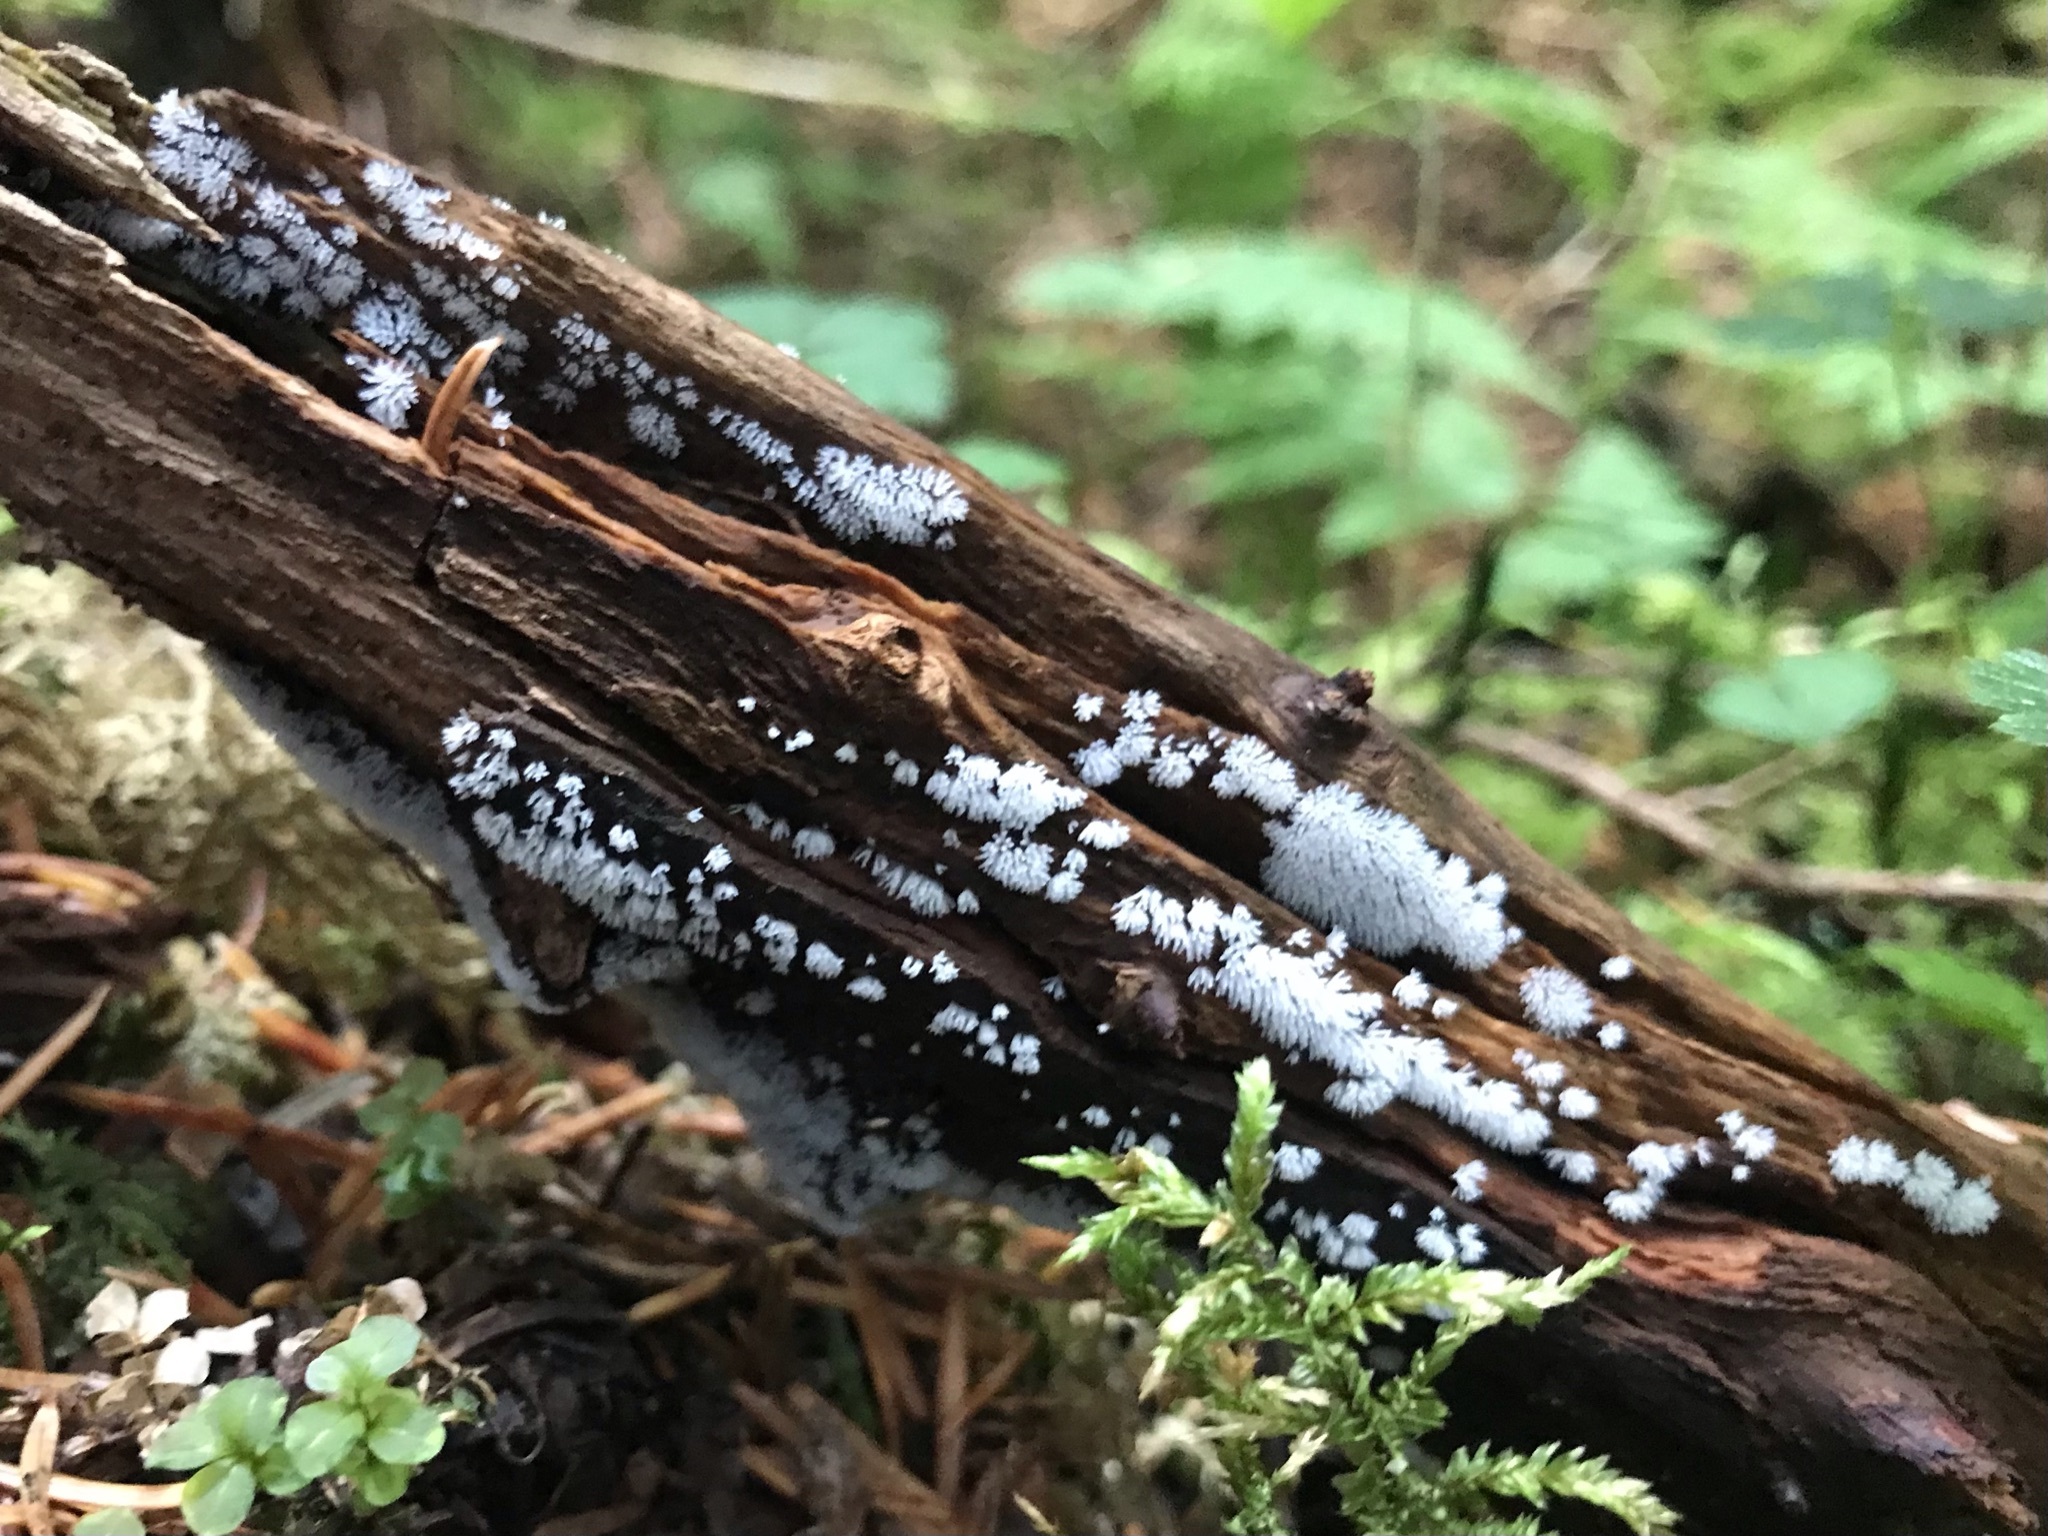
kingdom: Protozoa
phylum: Mycetozoa
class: Protosteliomycetes
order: Ceratiomyxales
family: Ceratiomyxaceae
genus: Ceratiomyxa
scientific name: Ceratiomyxa fruticulosa
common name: Honeycomb coral slime mold
